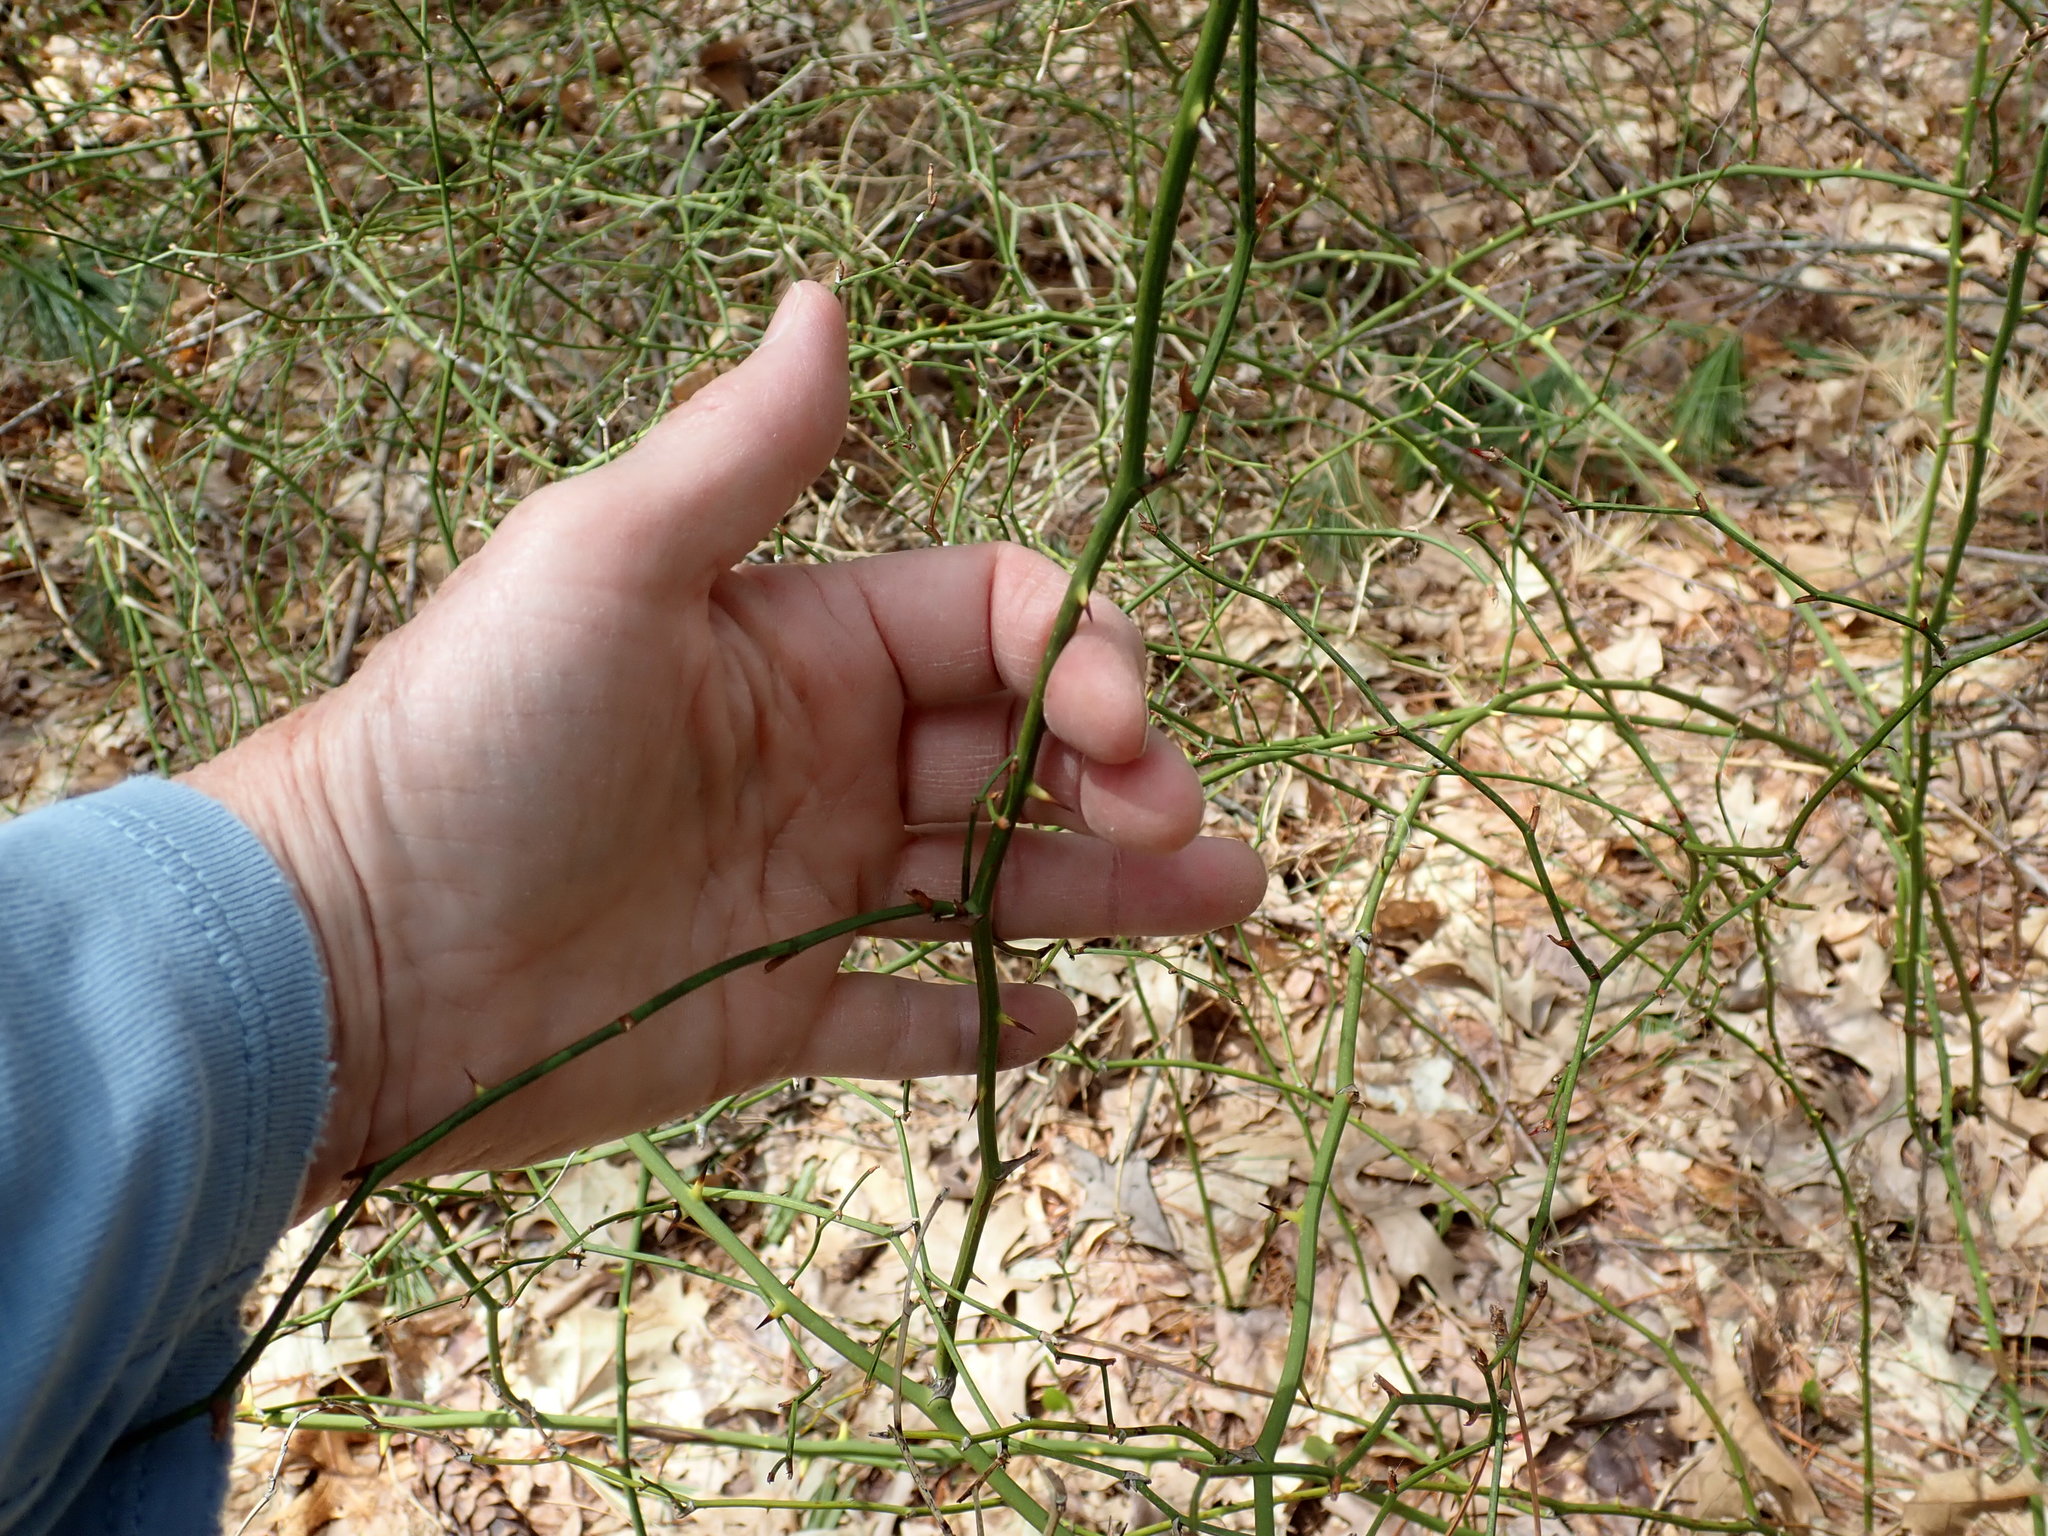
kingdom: Plantae
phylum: Tracheophyta
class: Liliopsida
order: Liliales
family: Smilacaceae
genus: Smilax
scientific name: Smilax rotundifolia
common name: Bullbriar
